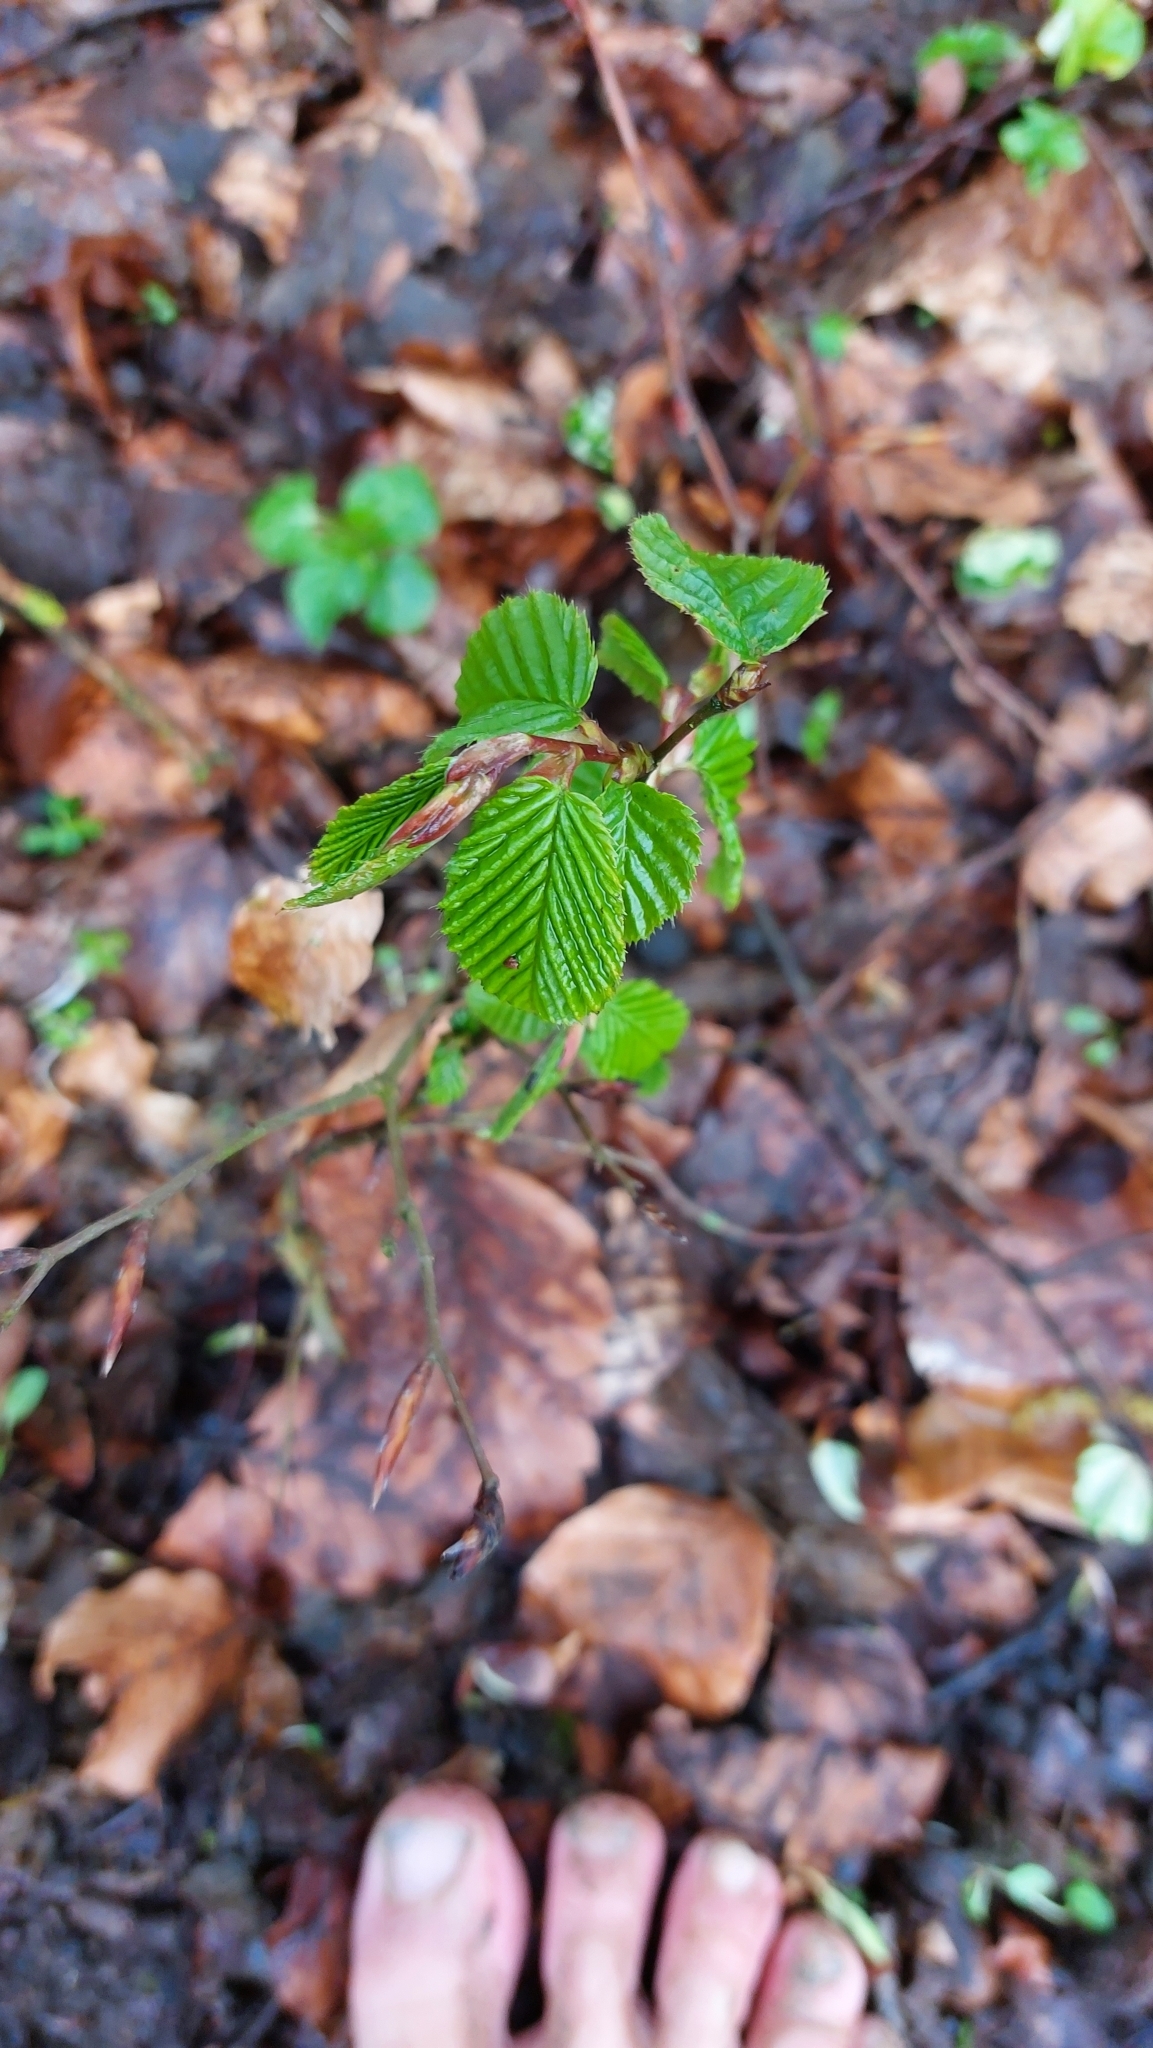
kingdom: Plantae
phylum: Tracheophyta
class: Magnoliopsida
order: Fagales
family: Betulaceae
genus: Carpinus
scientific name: Carpinus betulus
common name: Hornbeam
